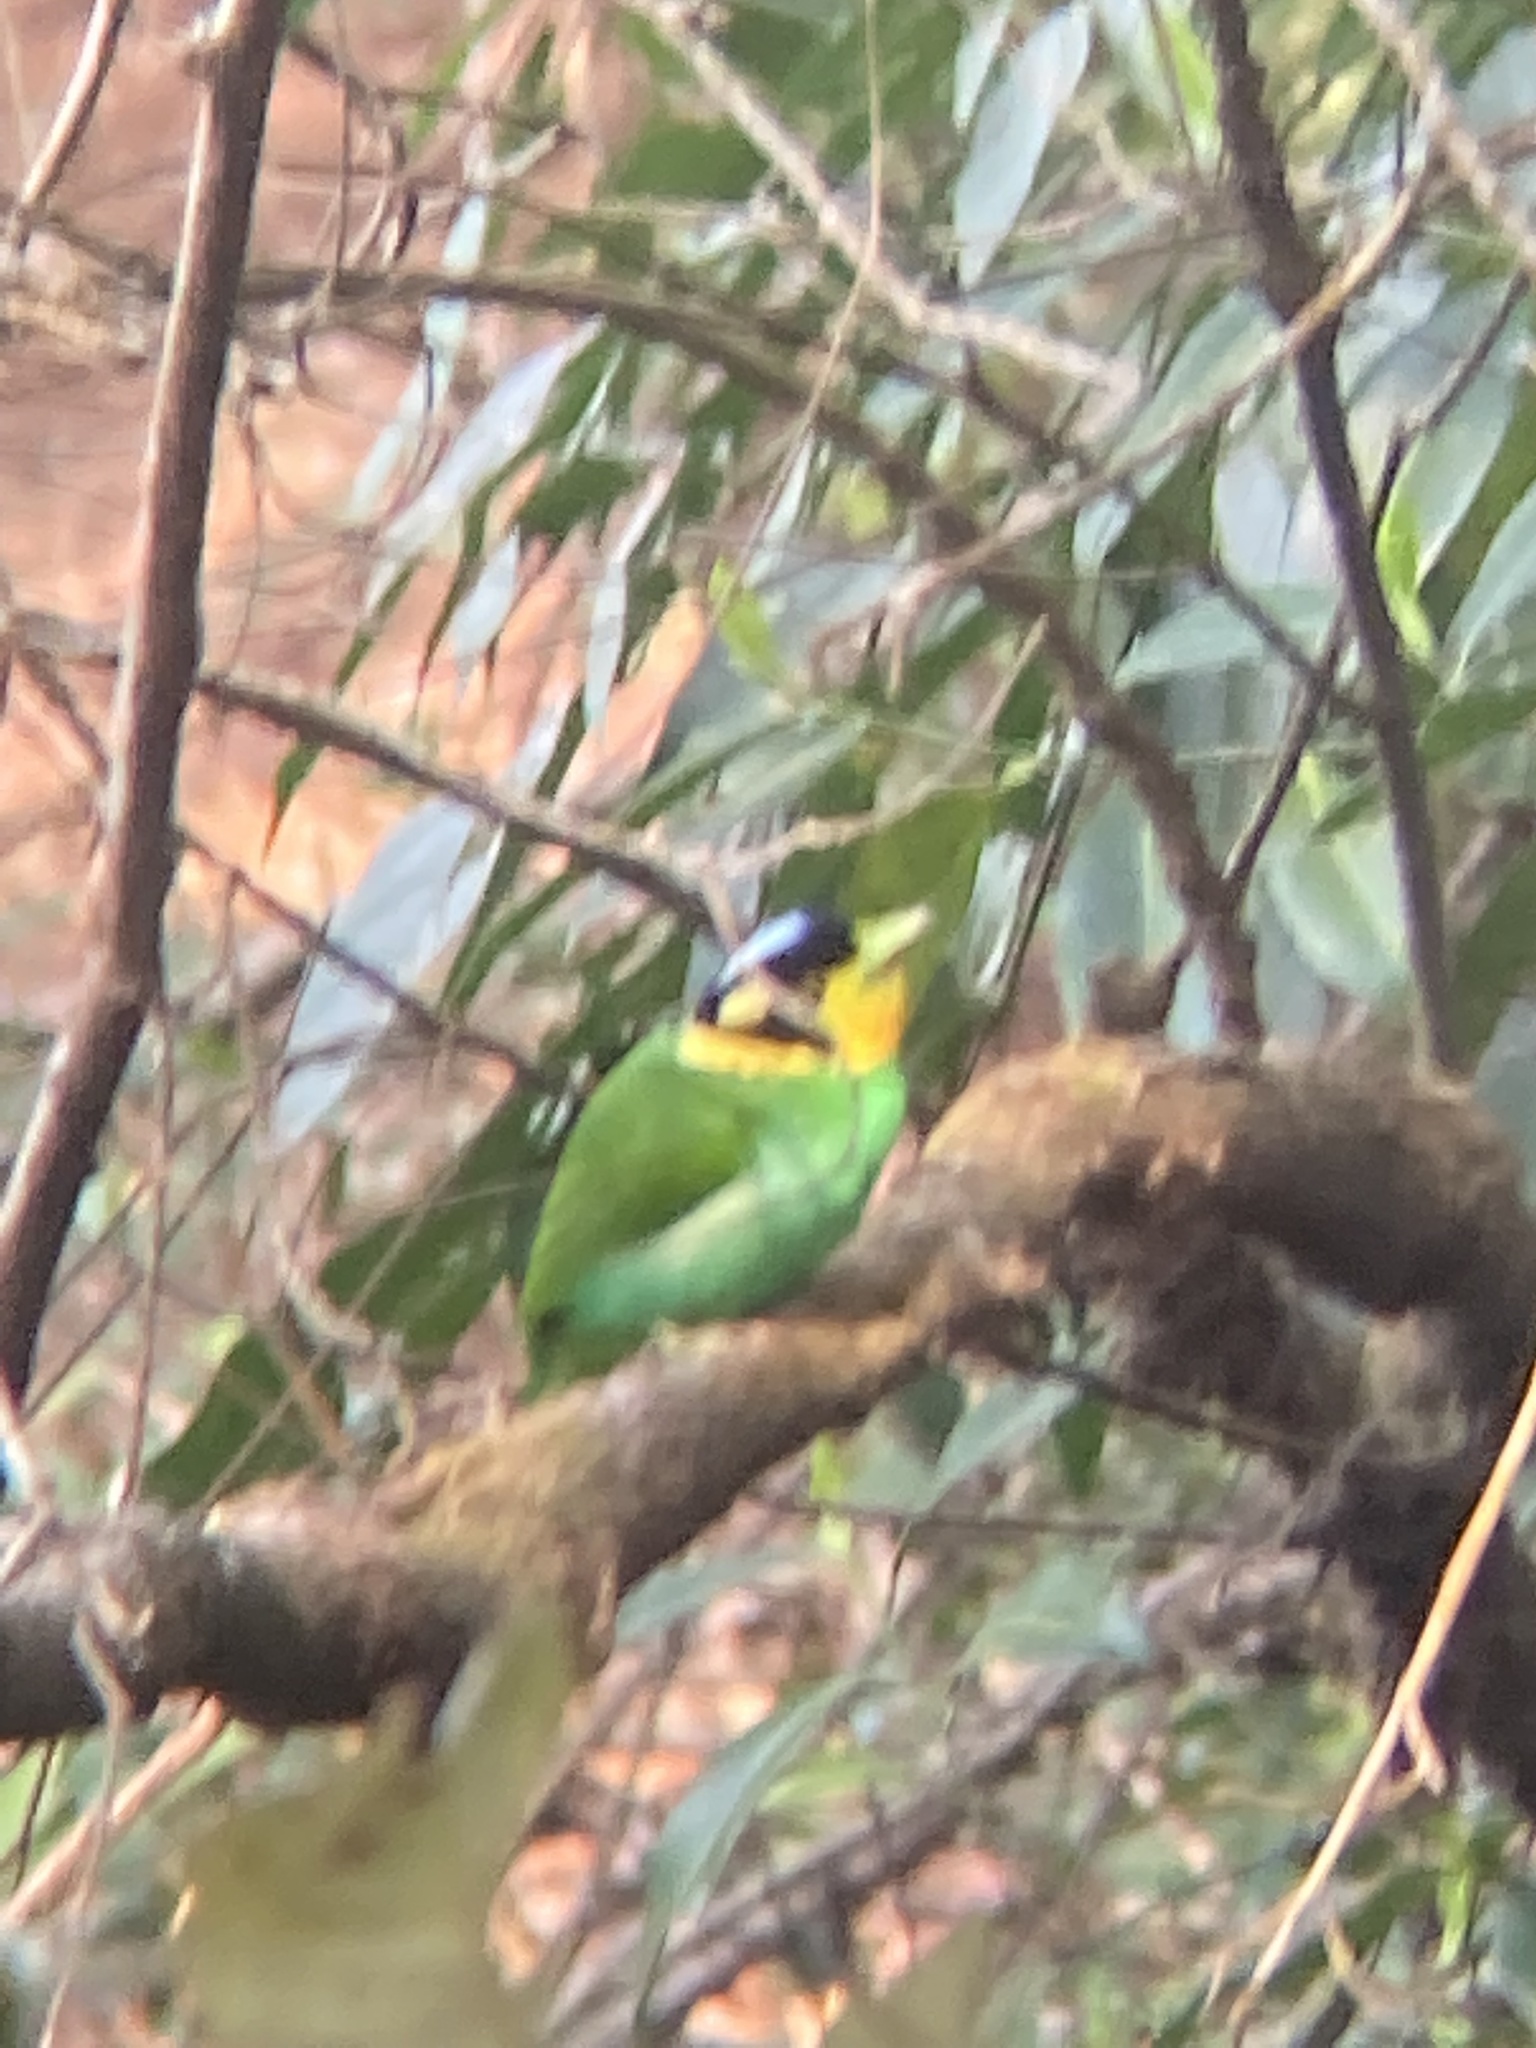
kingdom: Animalia
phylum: Chordata
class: Aves
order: Passeriformes
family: Eurylaimidae
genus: Psarisomus
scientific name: Psarisomus dalhousiae
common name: Long-tailed broadbill
